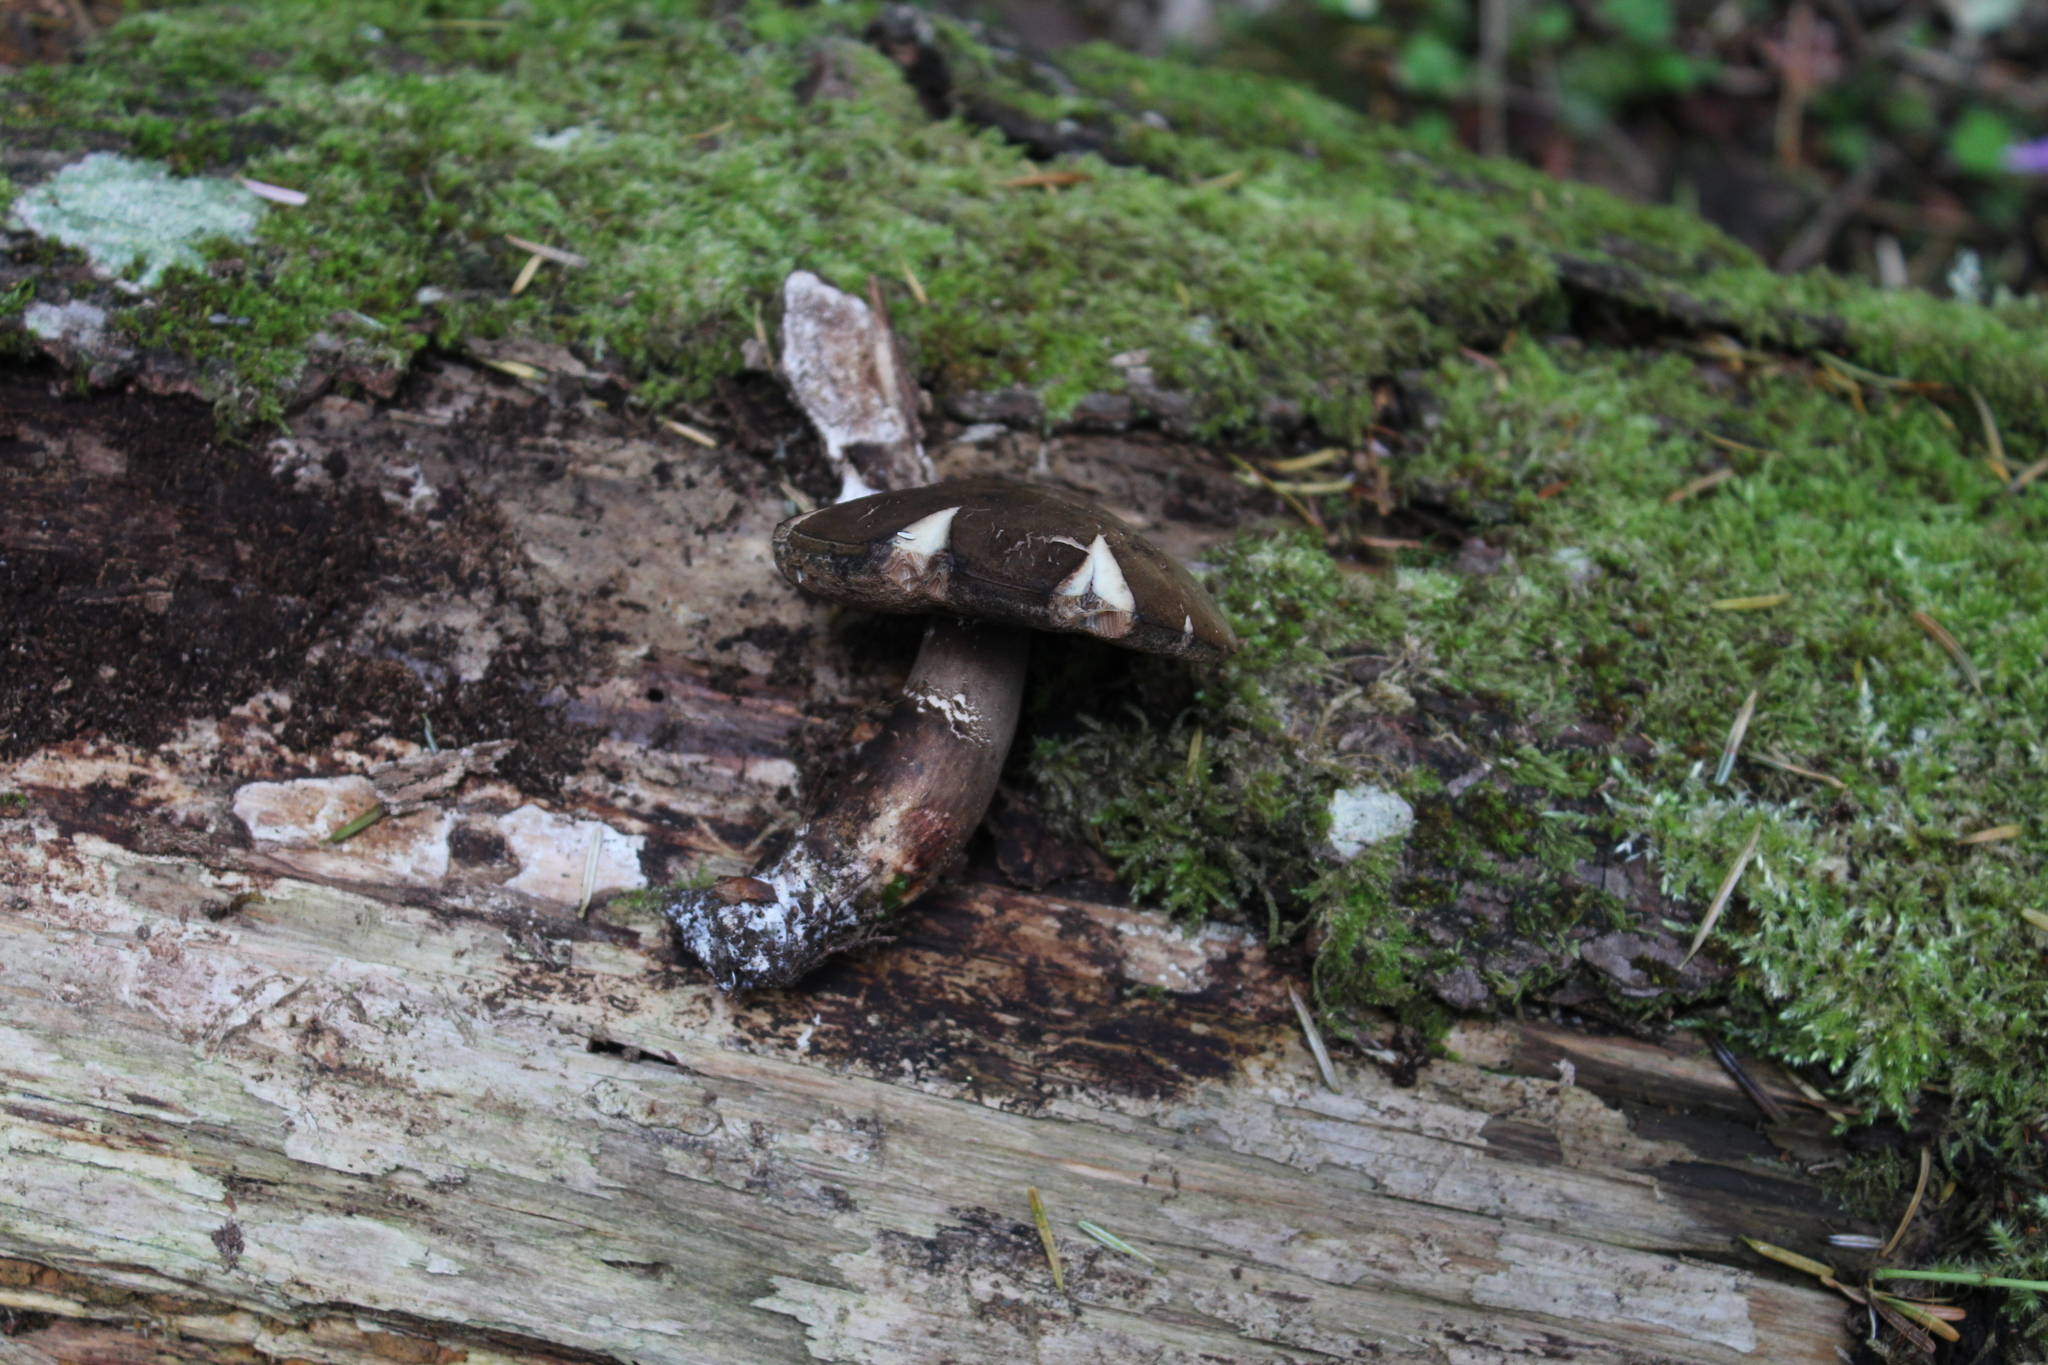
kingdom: Fungi
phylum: Basidiomycota
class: Agaricomycetes
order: Boletales
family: Boletaceae
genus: Porphyrellus
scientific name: Porphyrellus porphyrosporus
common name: Dusky bolete
